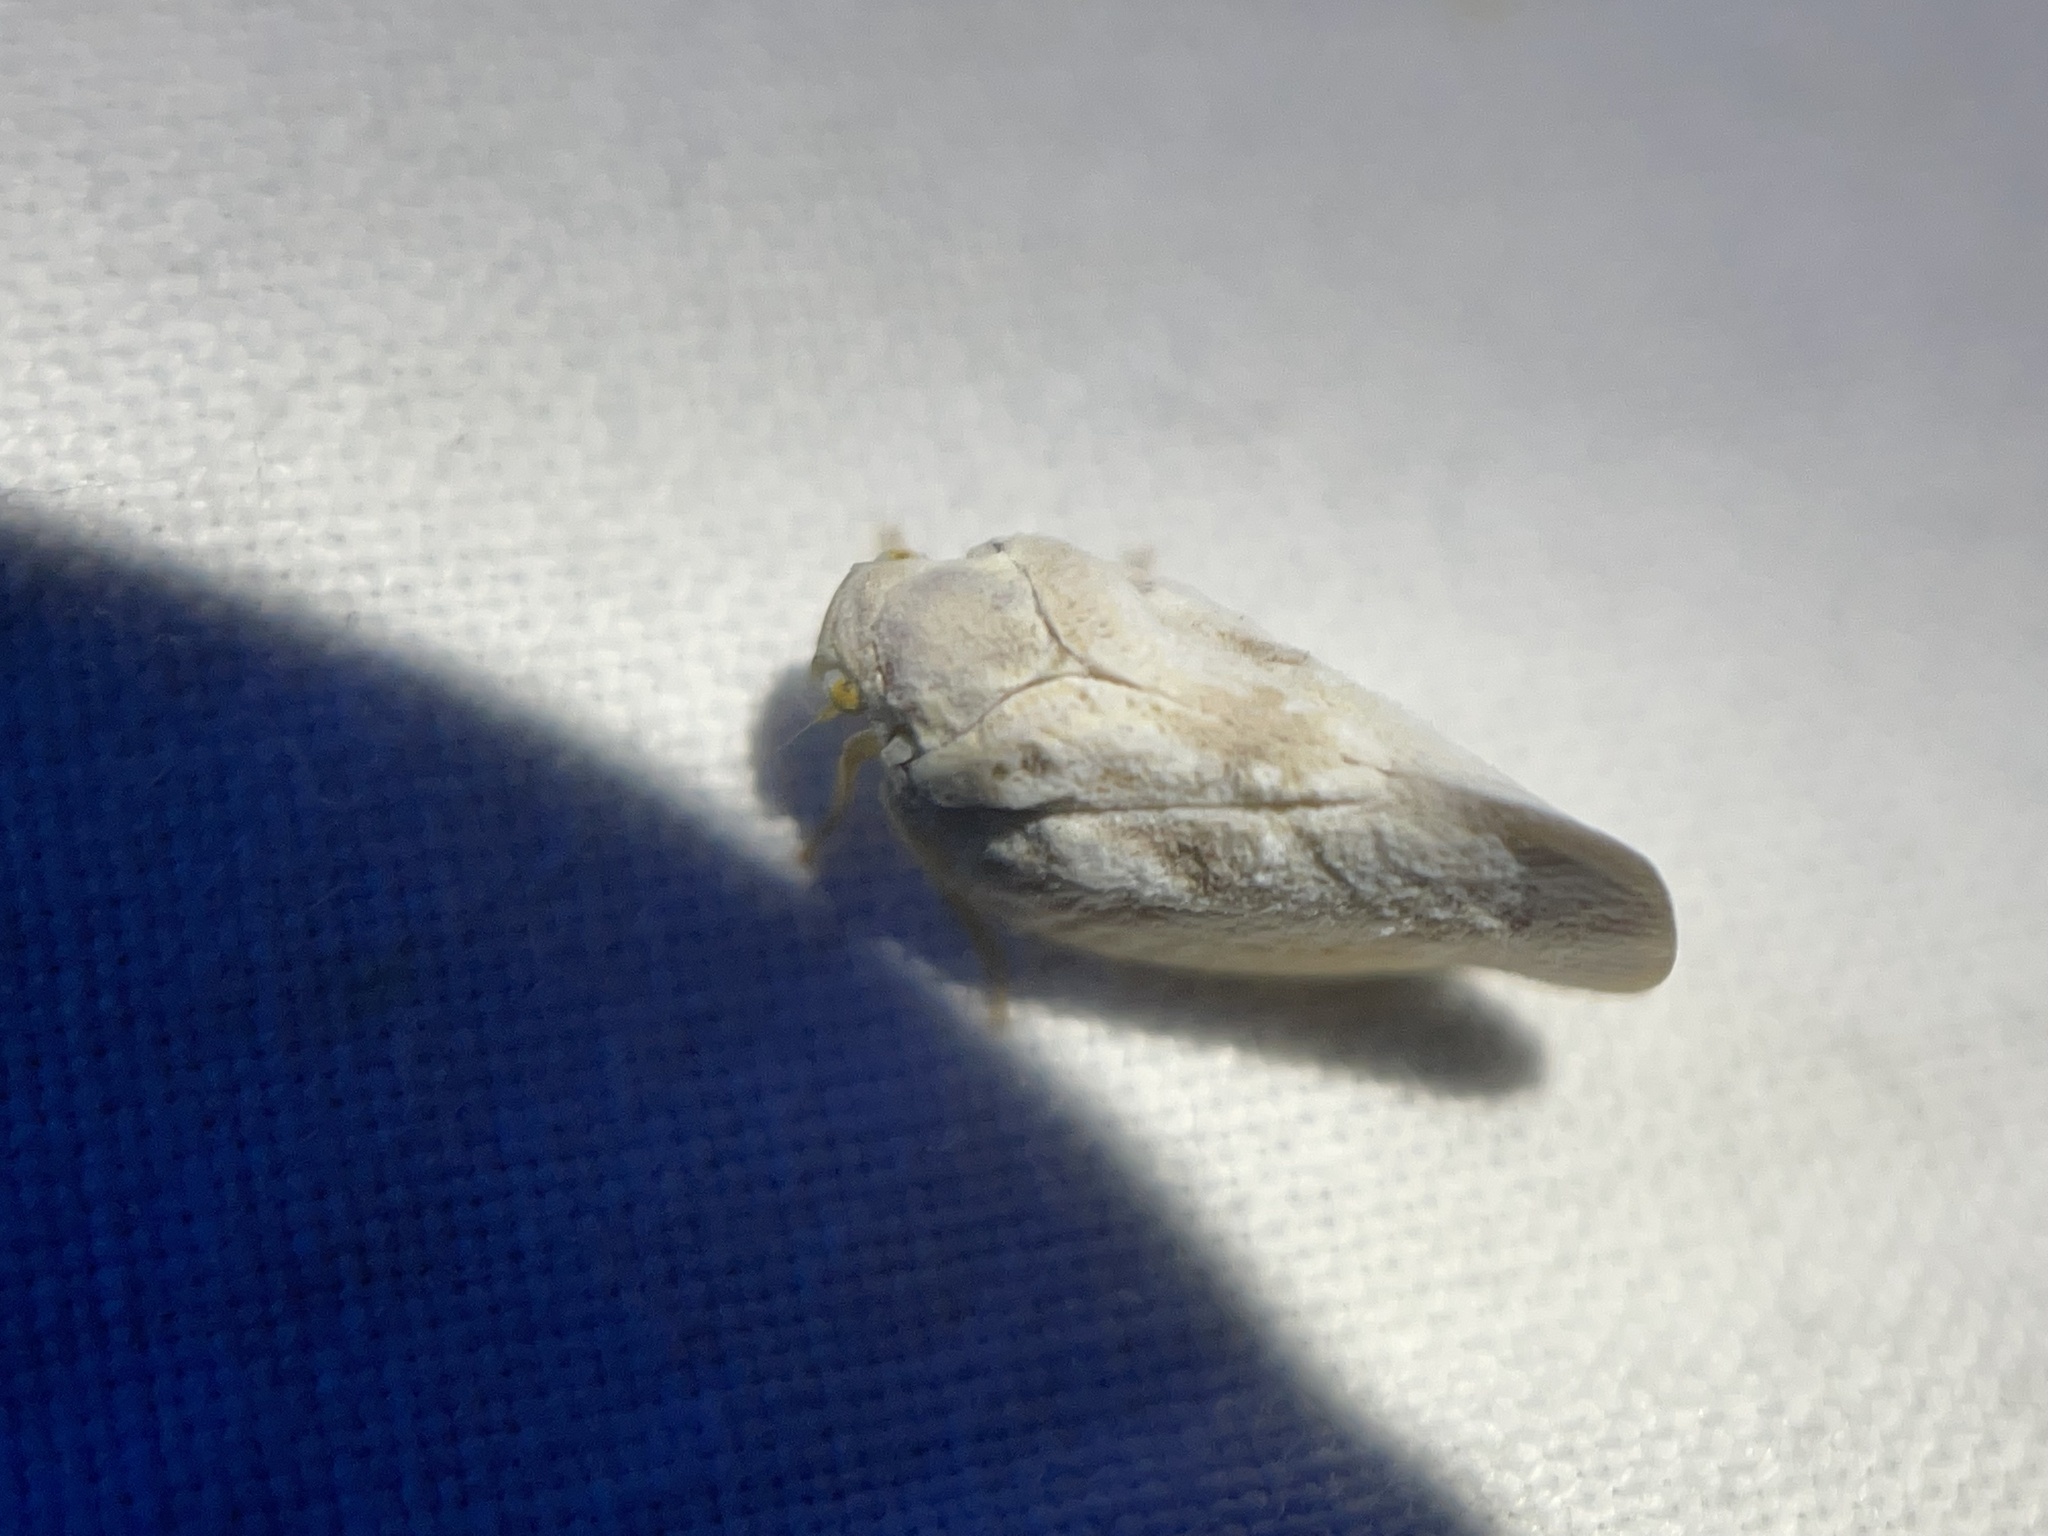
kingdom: Animalia
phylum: Arthropoda
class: Insecta
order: Hemiptera
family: Flatidae
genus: Metcalfa
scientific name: Metcalfa pruinosa
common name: Citrus flatid planthopper
